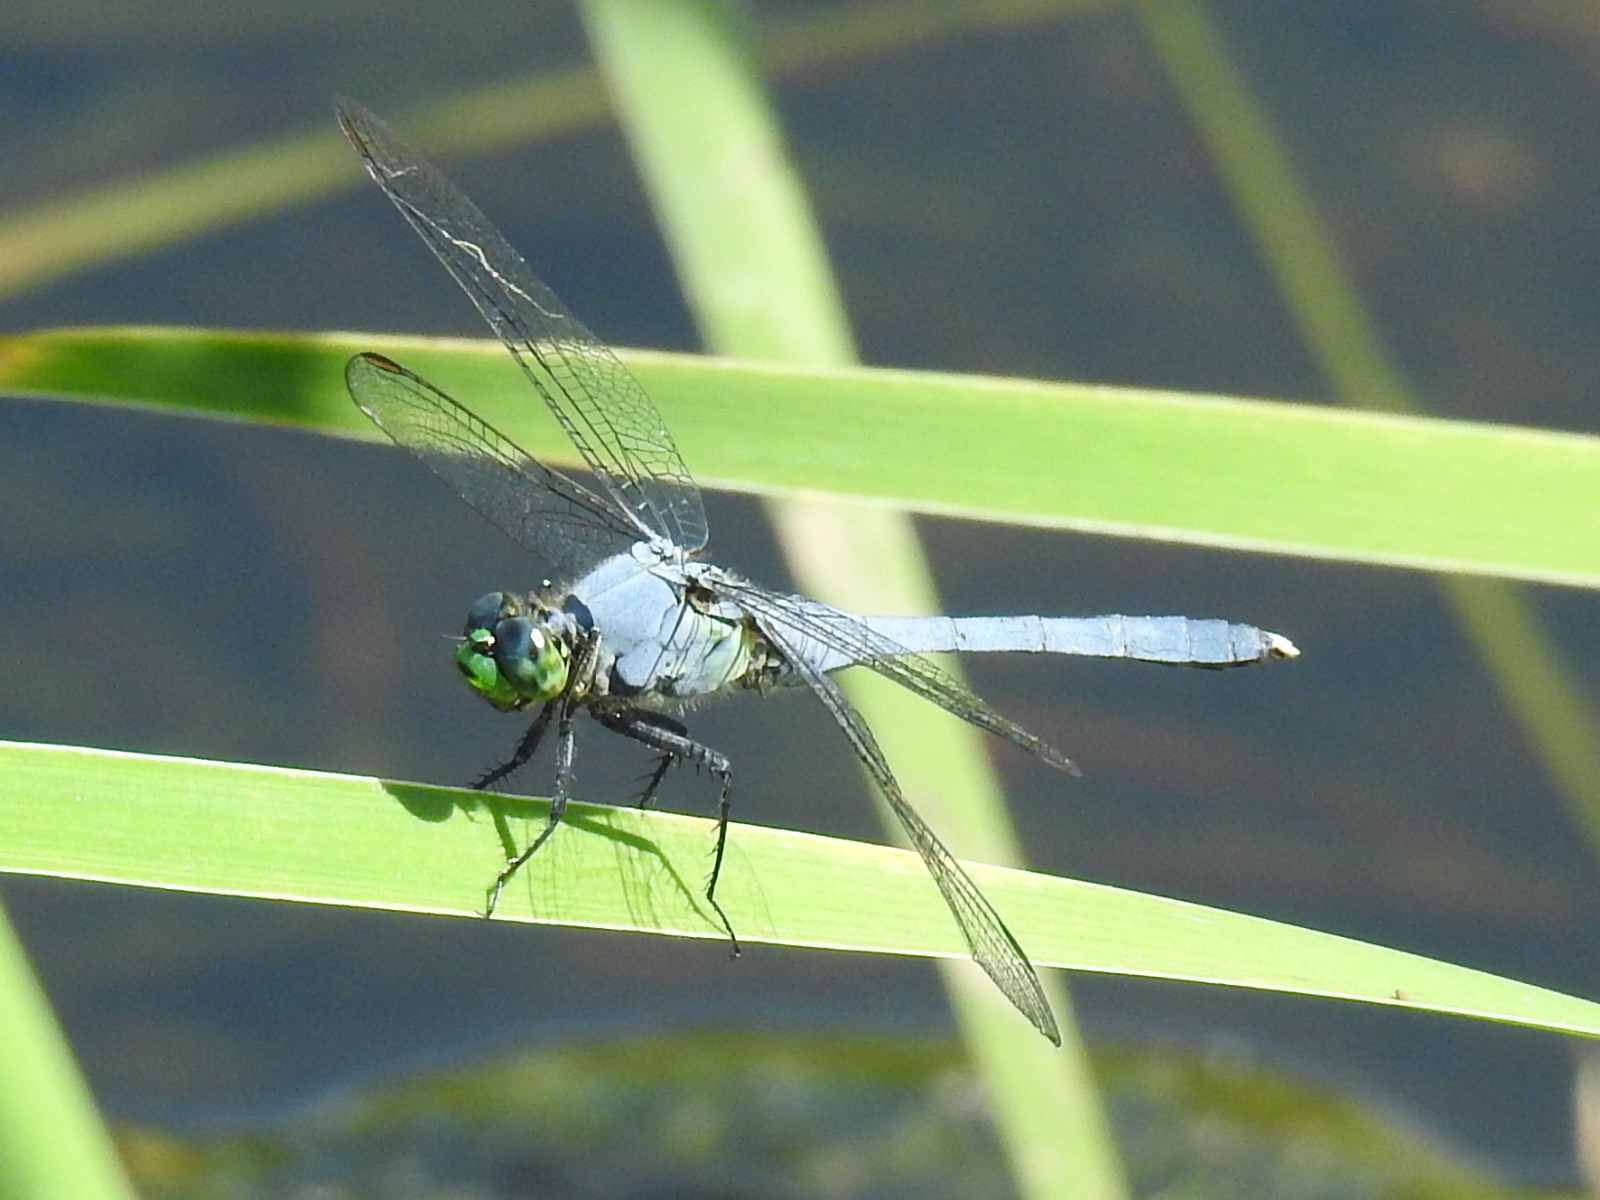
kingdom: Animalia
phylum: Arthropoda
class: Insecta
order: Odonata
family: Libellulidae
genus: Erythemis
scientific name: Erythemis simplicicollis
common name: Eastern pondhawk
